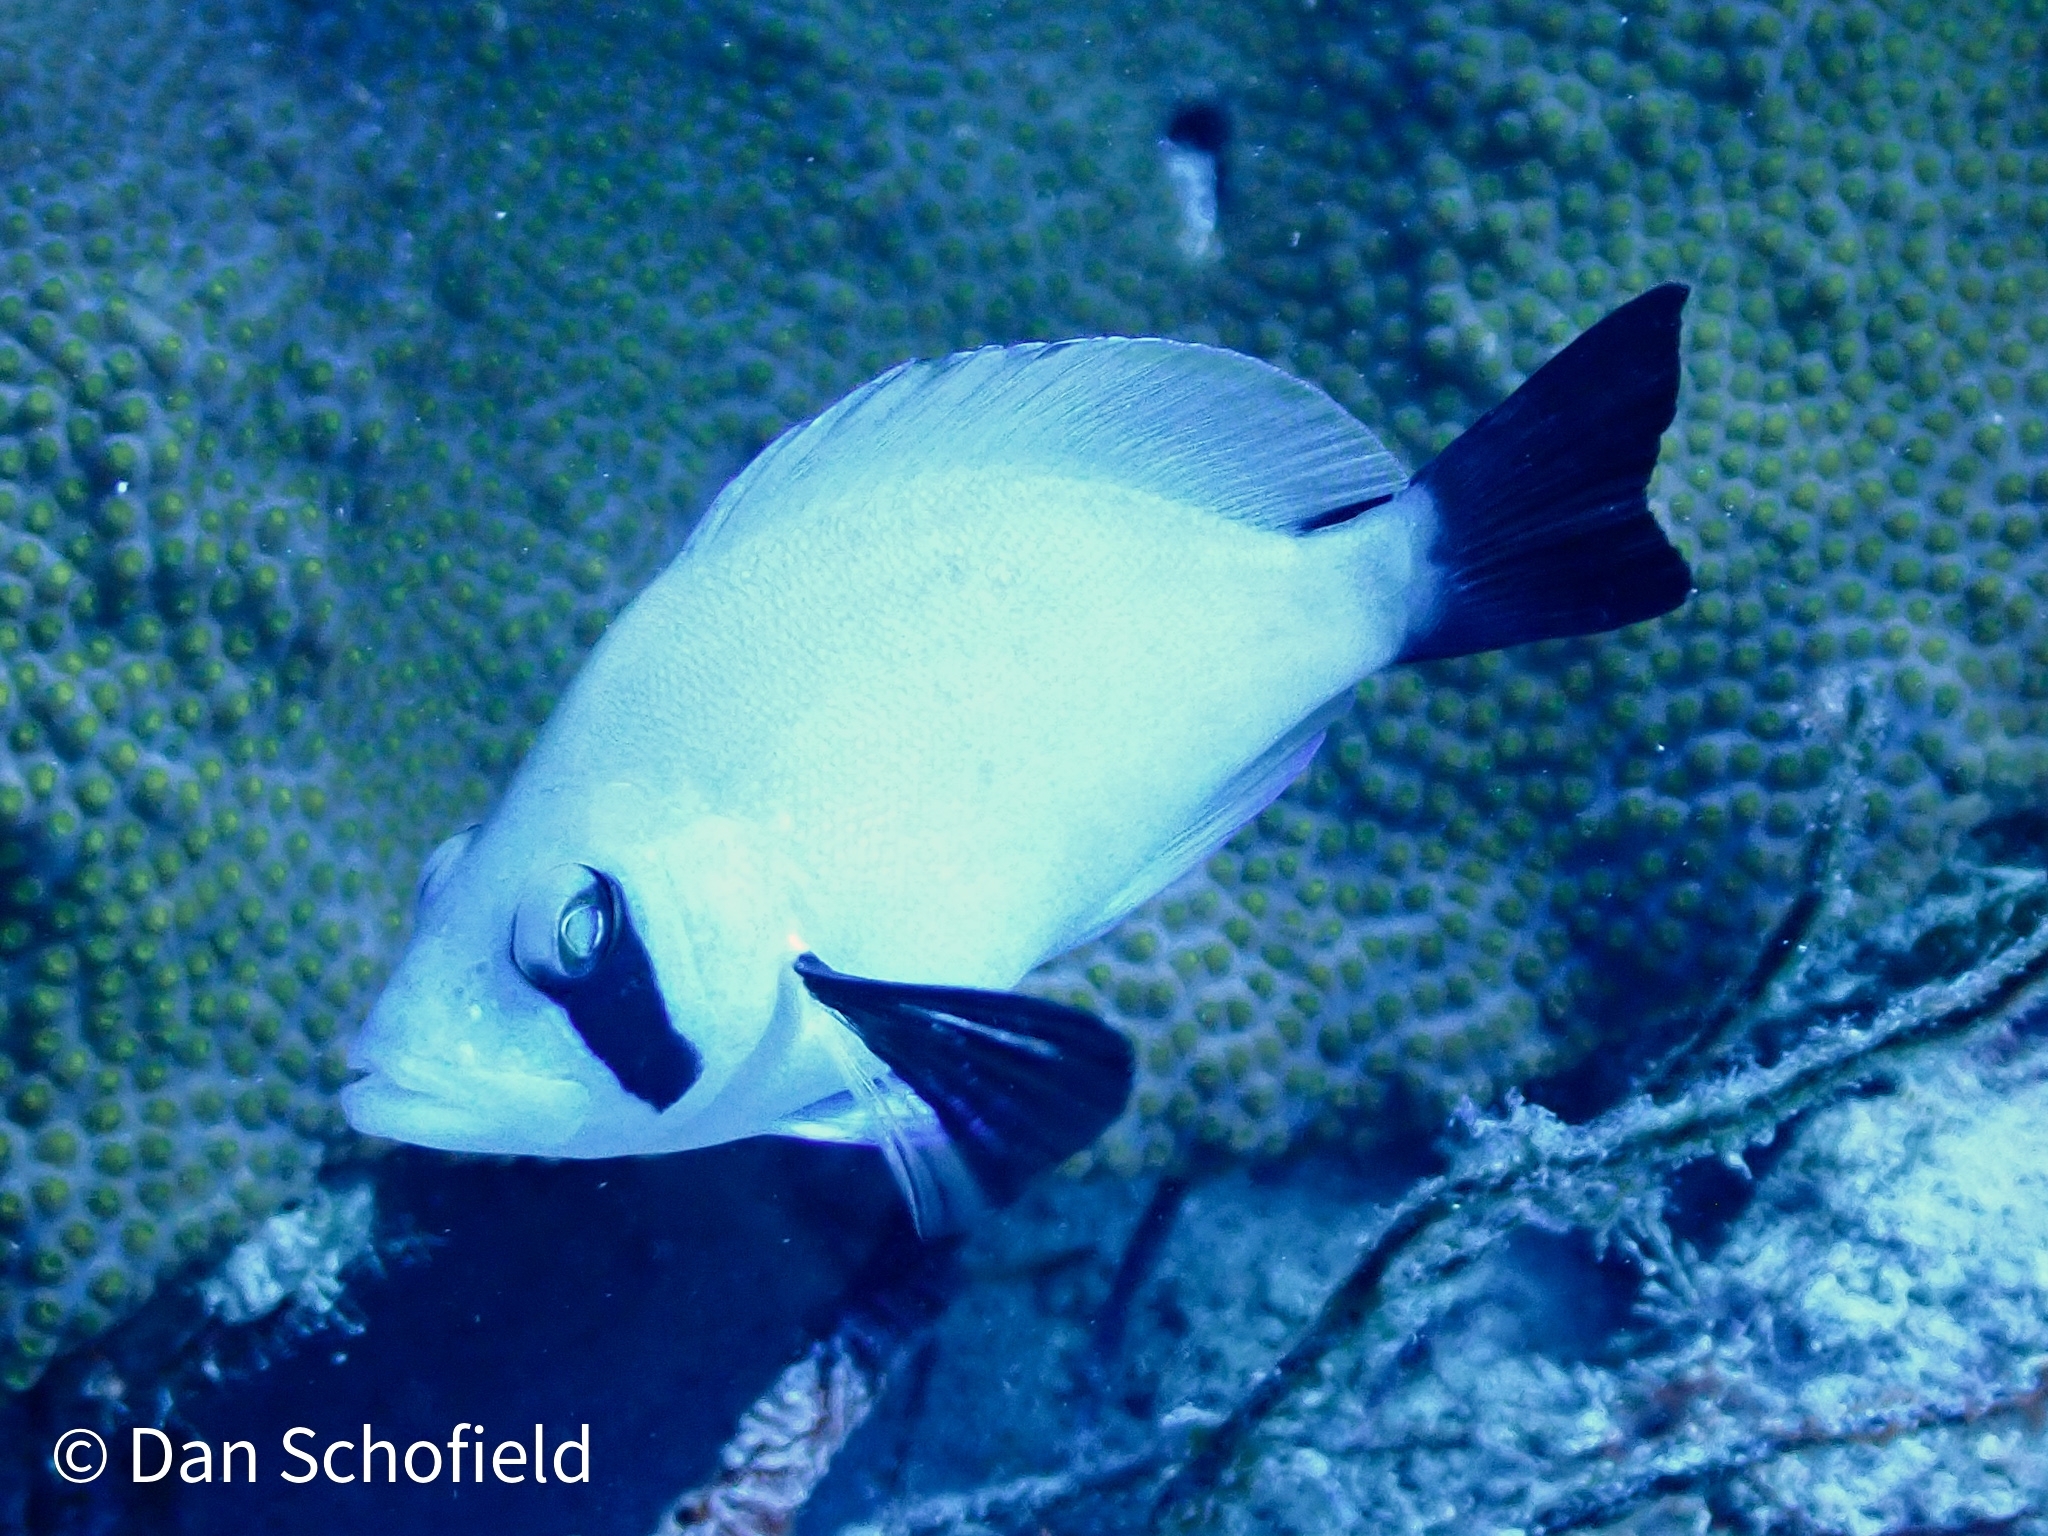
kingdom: Animalia
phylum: Chordata
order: Perciformes
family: Serranidae
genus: Hypoplectrus
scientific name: Hypoplectrus providencianus
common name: Masked hamlet
